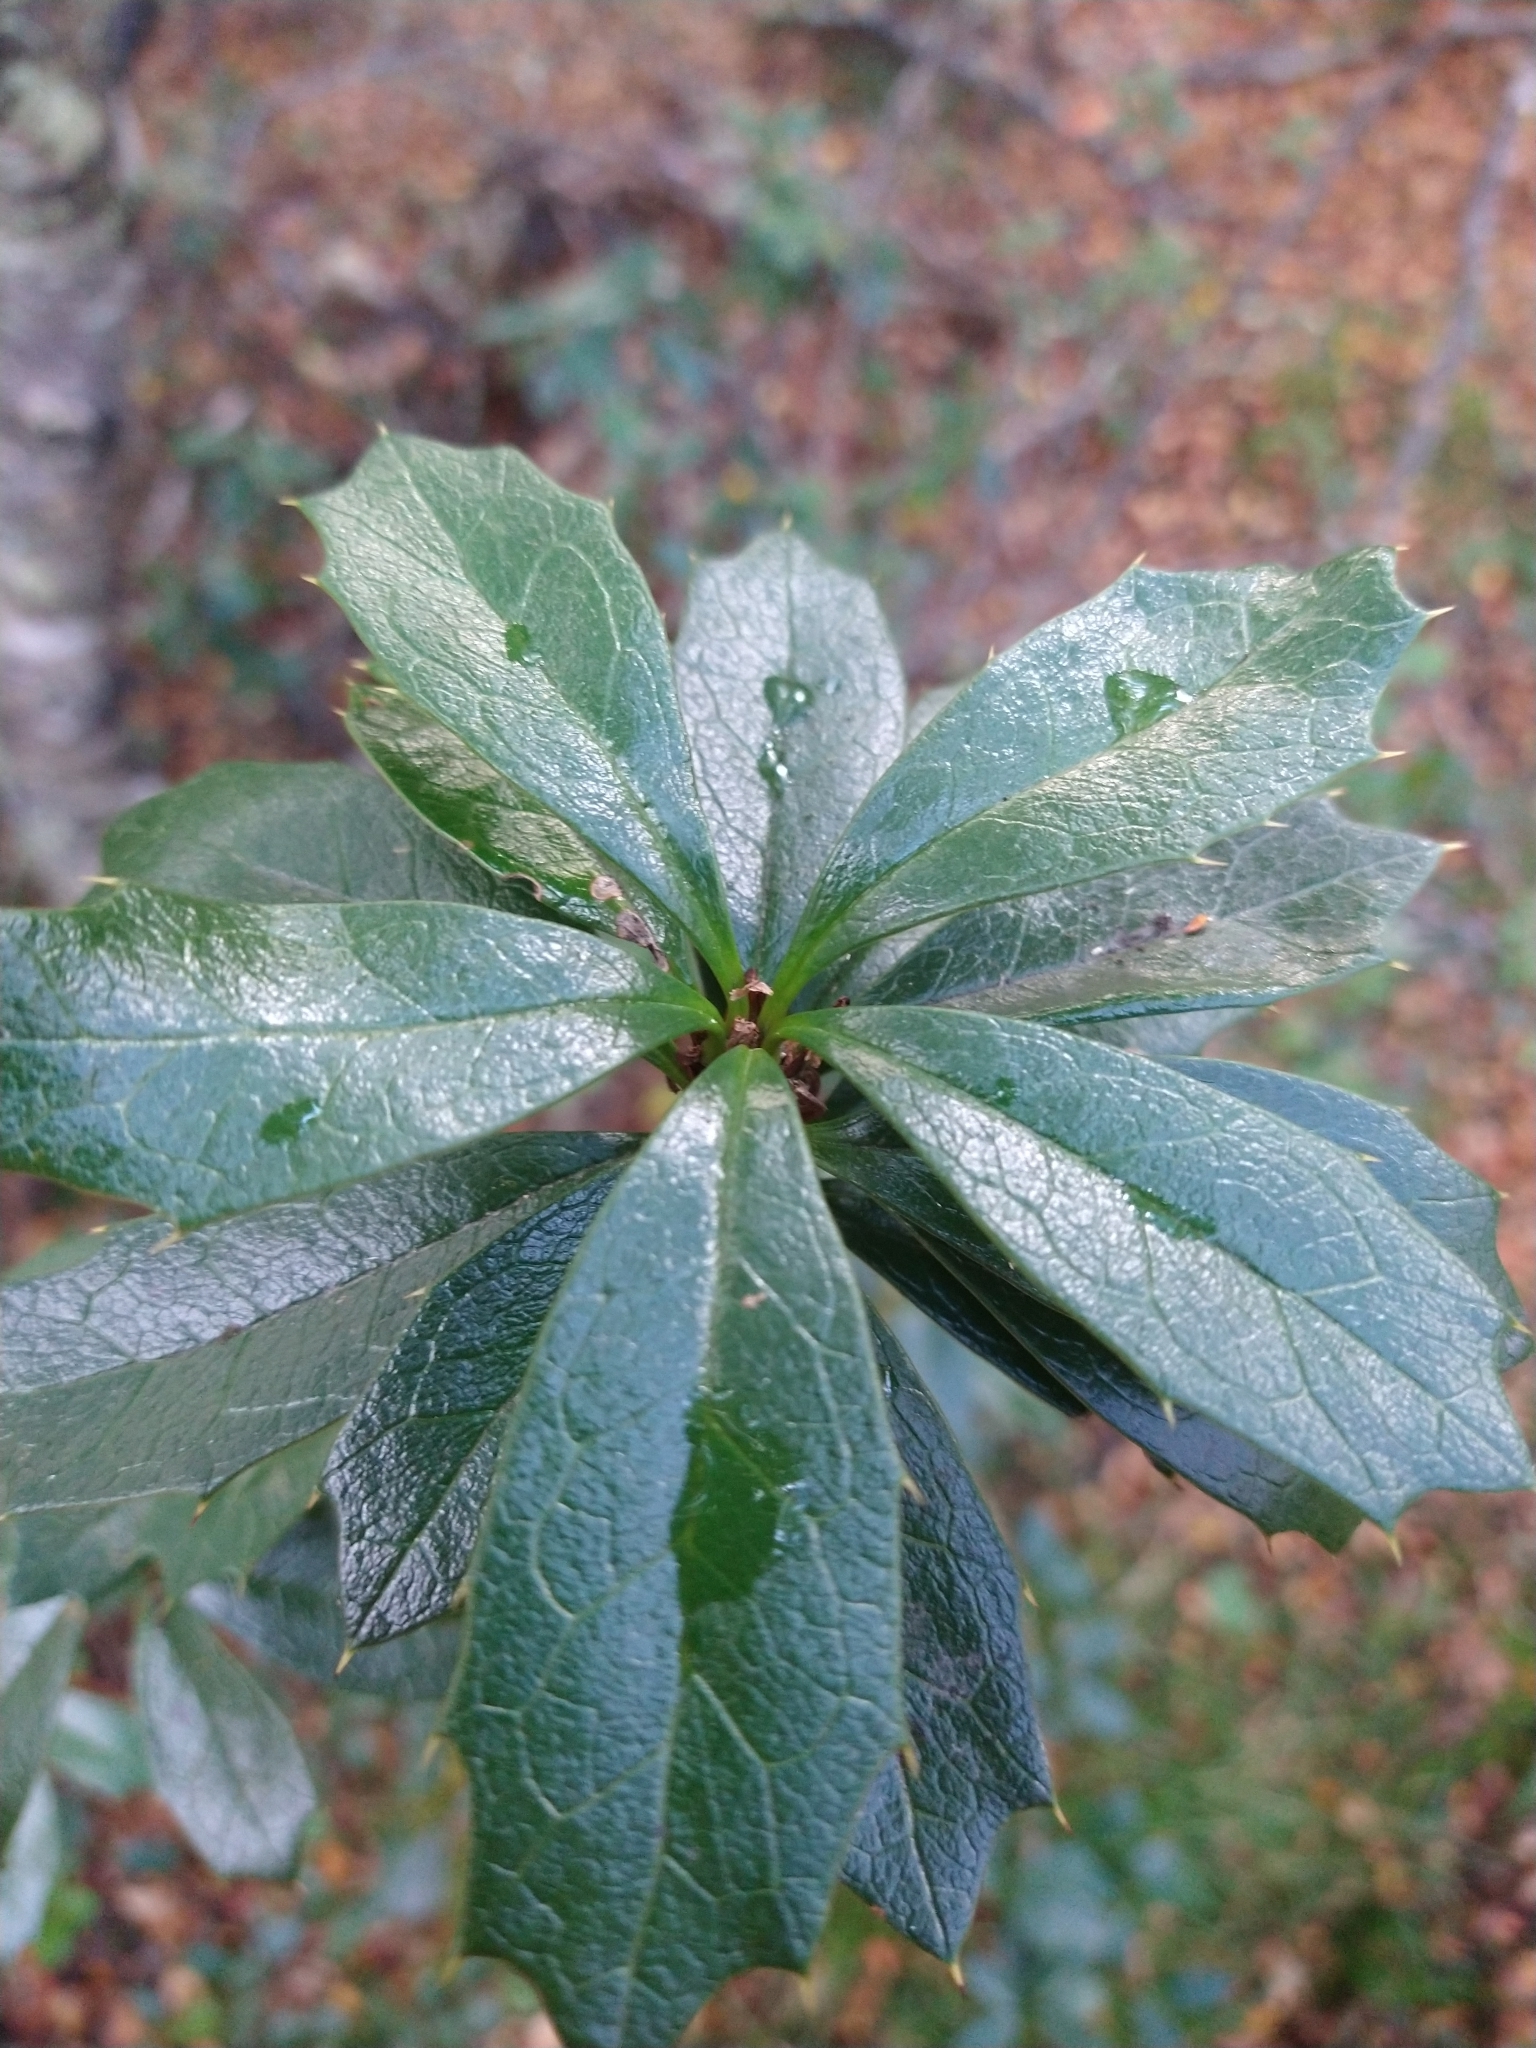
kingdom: Plantae
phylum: Tracheophyta
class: Magnoliopsida
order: Ranunculales
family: Berberidaceae
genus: Berberis
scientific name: Berberis ilicifolia
